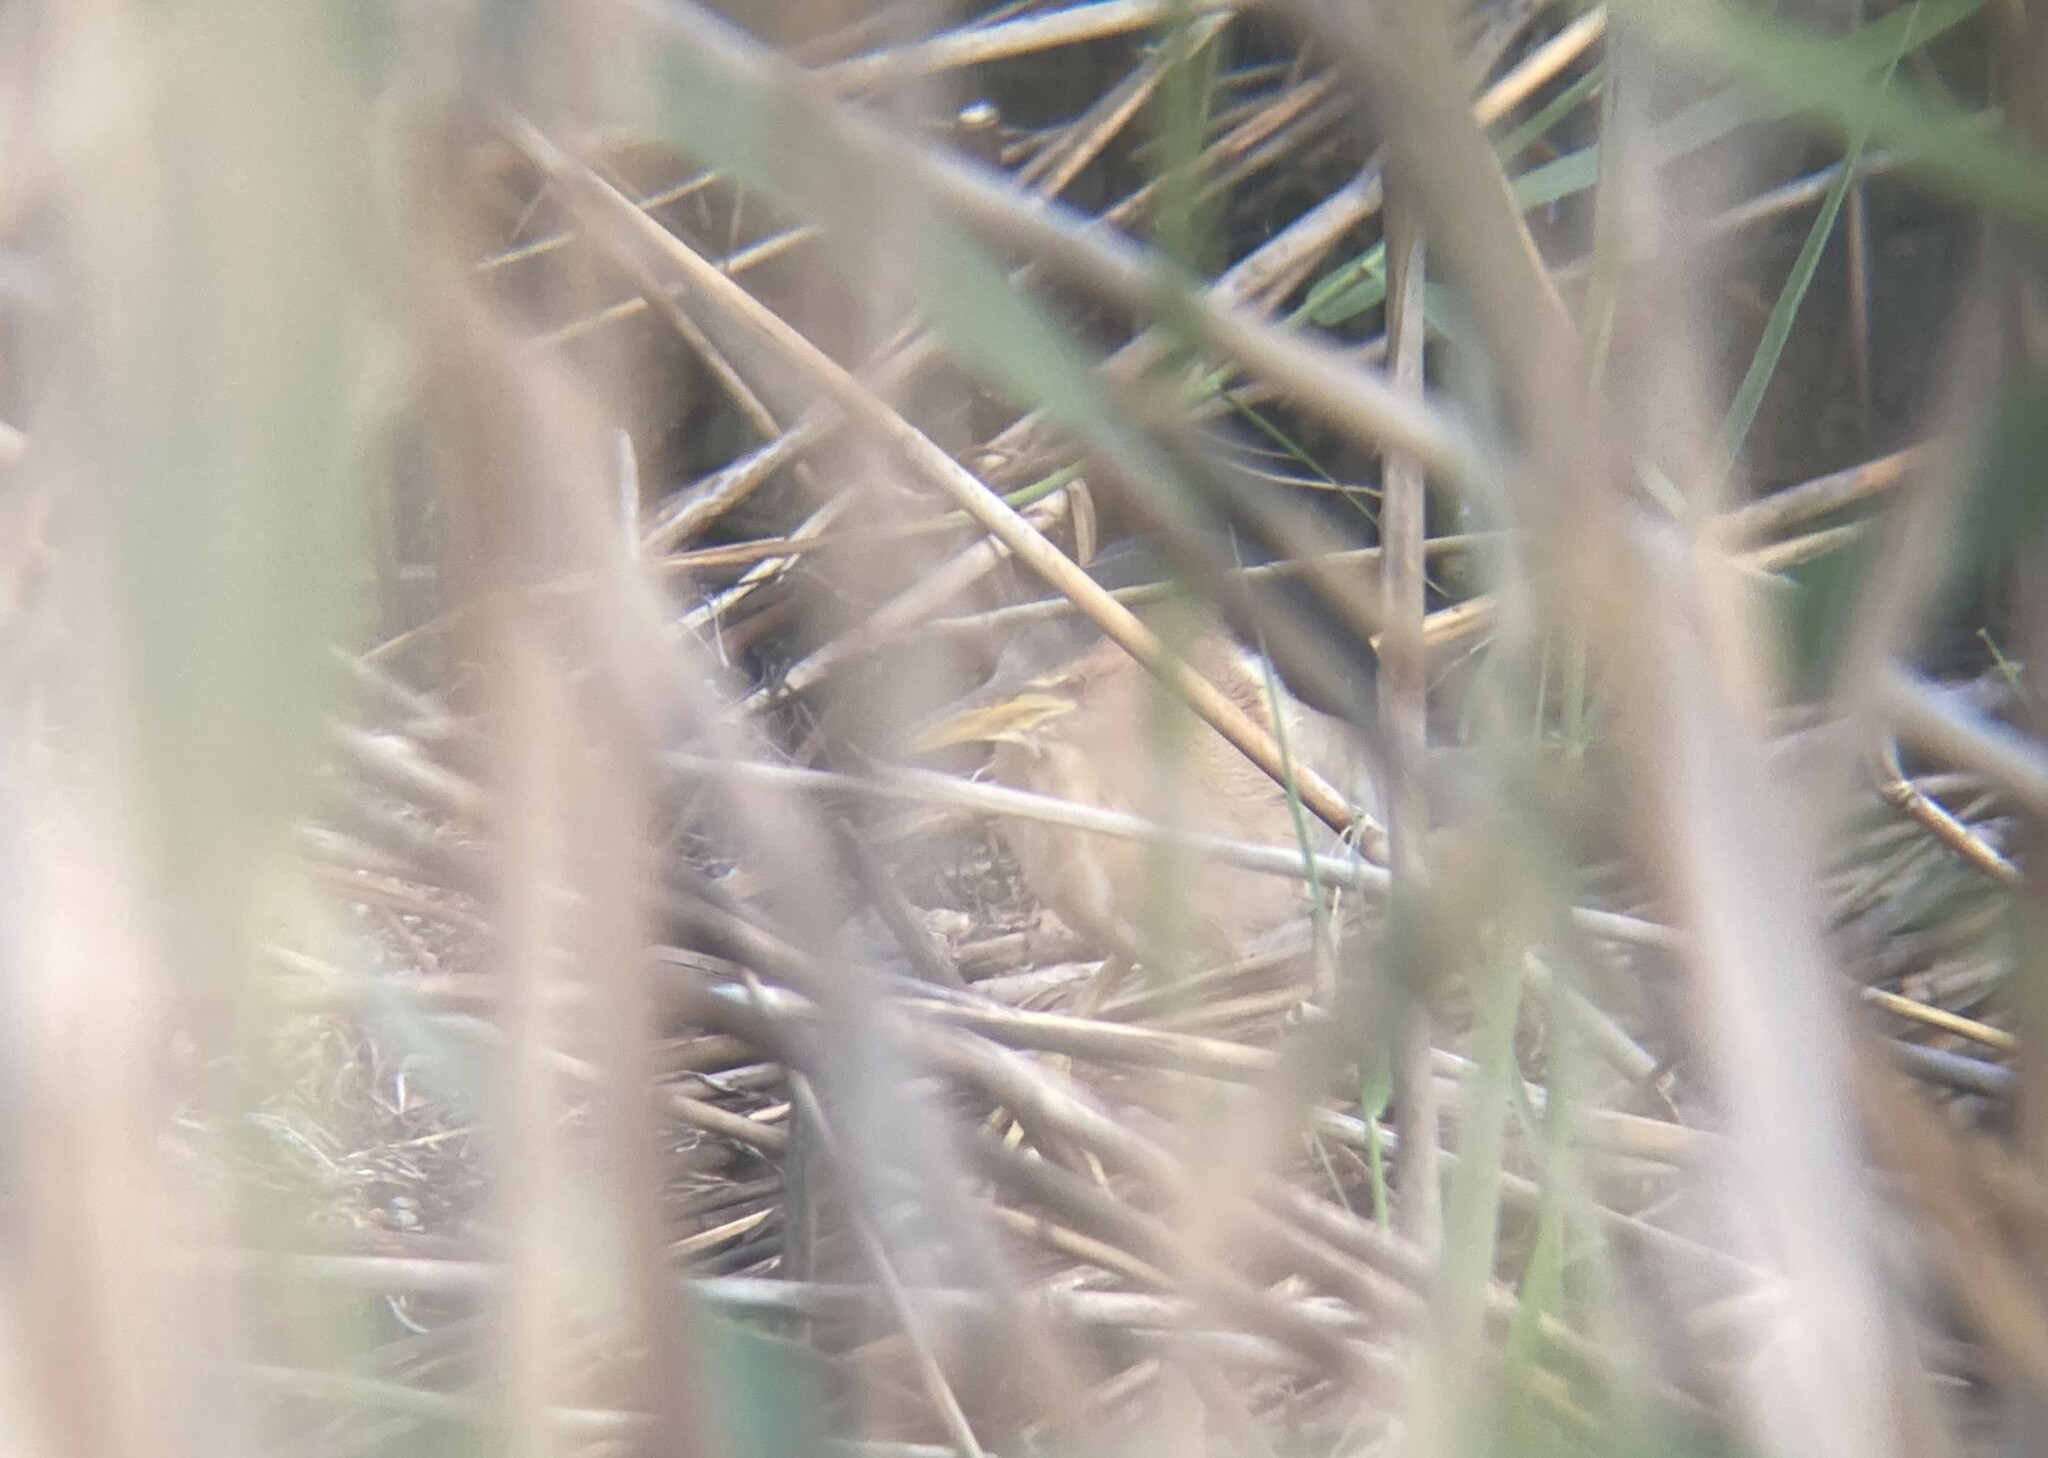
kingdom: Animalia
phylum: Chordata
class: Aves
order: Pelecaniformes
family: Ardeidae
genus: Ixobrychus
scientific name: Ixobrychus minutus
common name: Little bittern
